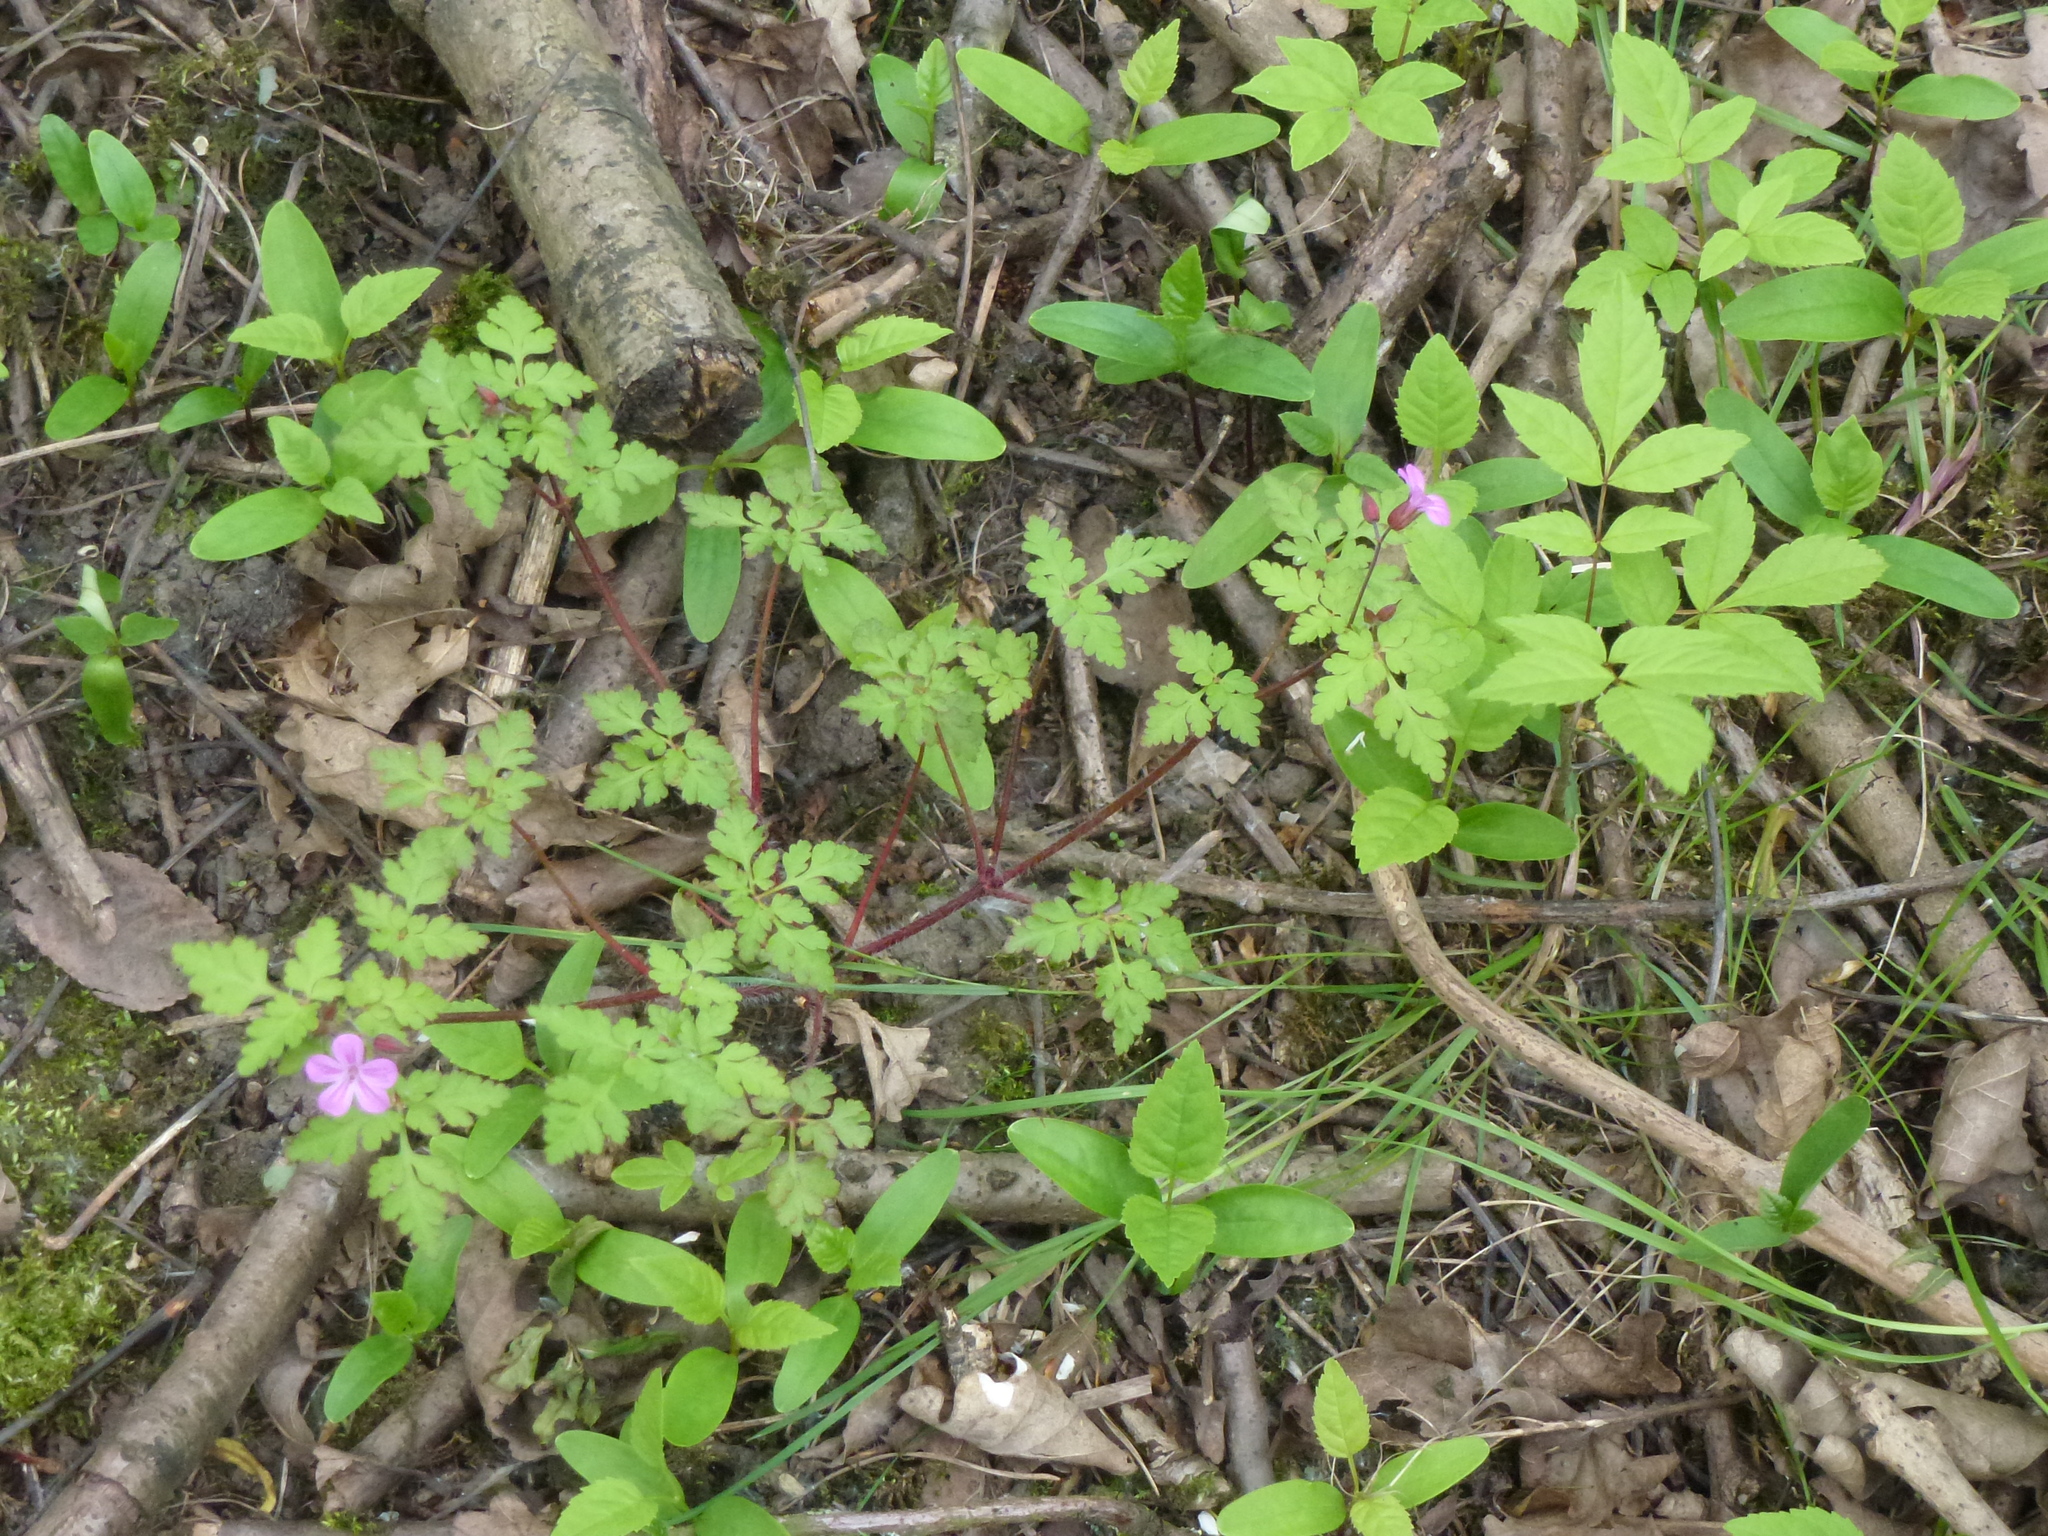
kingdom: Plantae
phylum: Tracheophyta
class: Magnoliopsida
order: Geraniales
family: Geraniaceae
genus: Geranium
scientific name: Geranium robertianum
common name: Herb-robert
